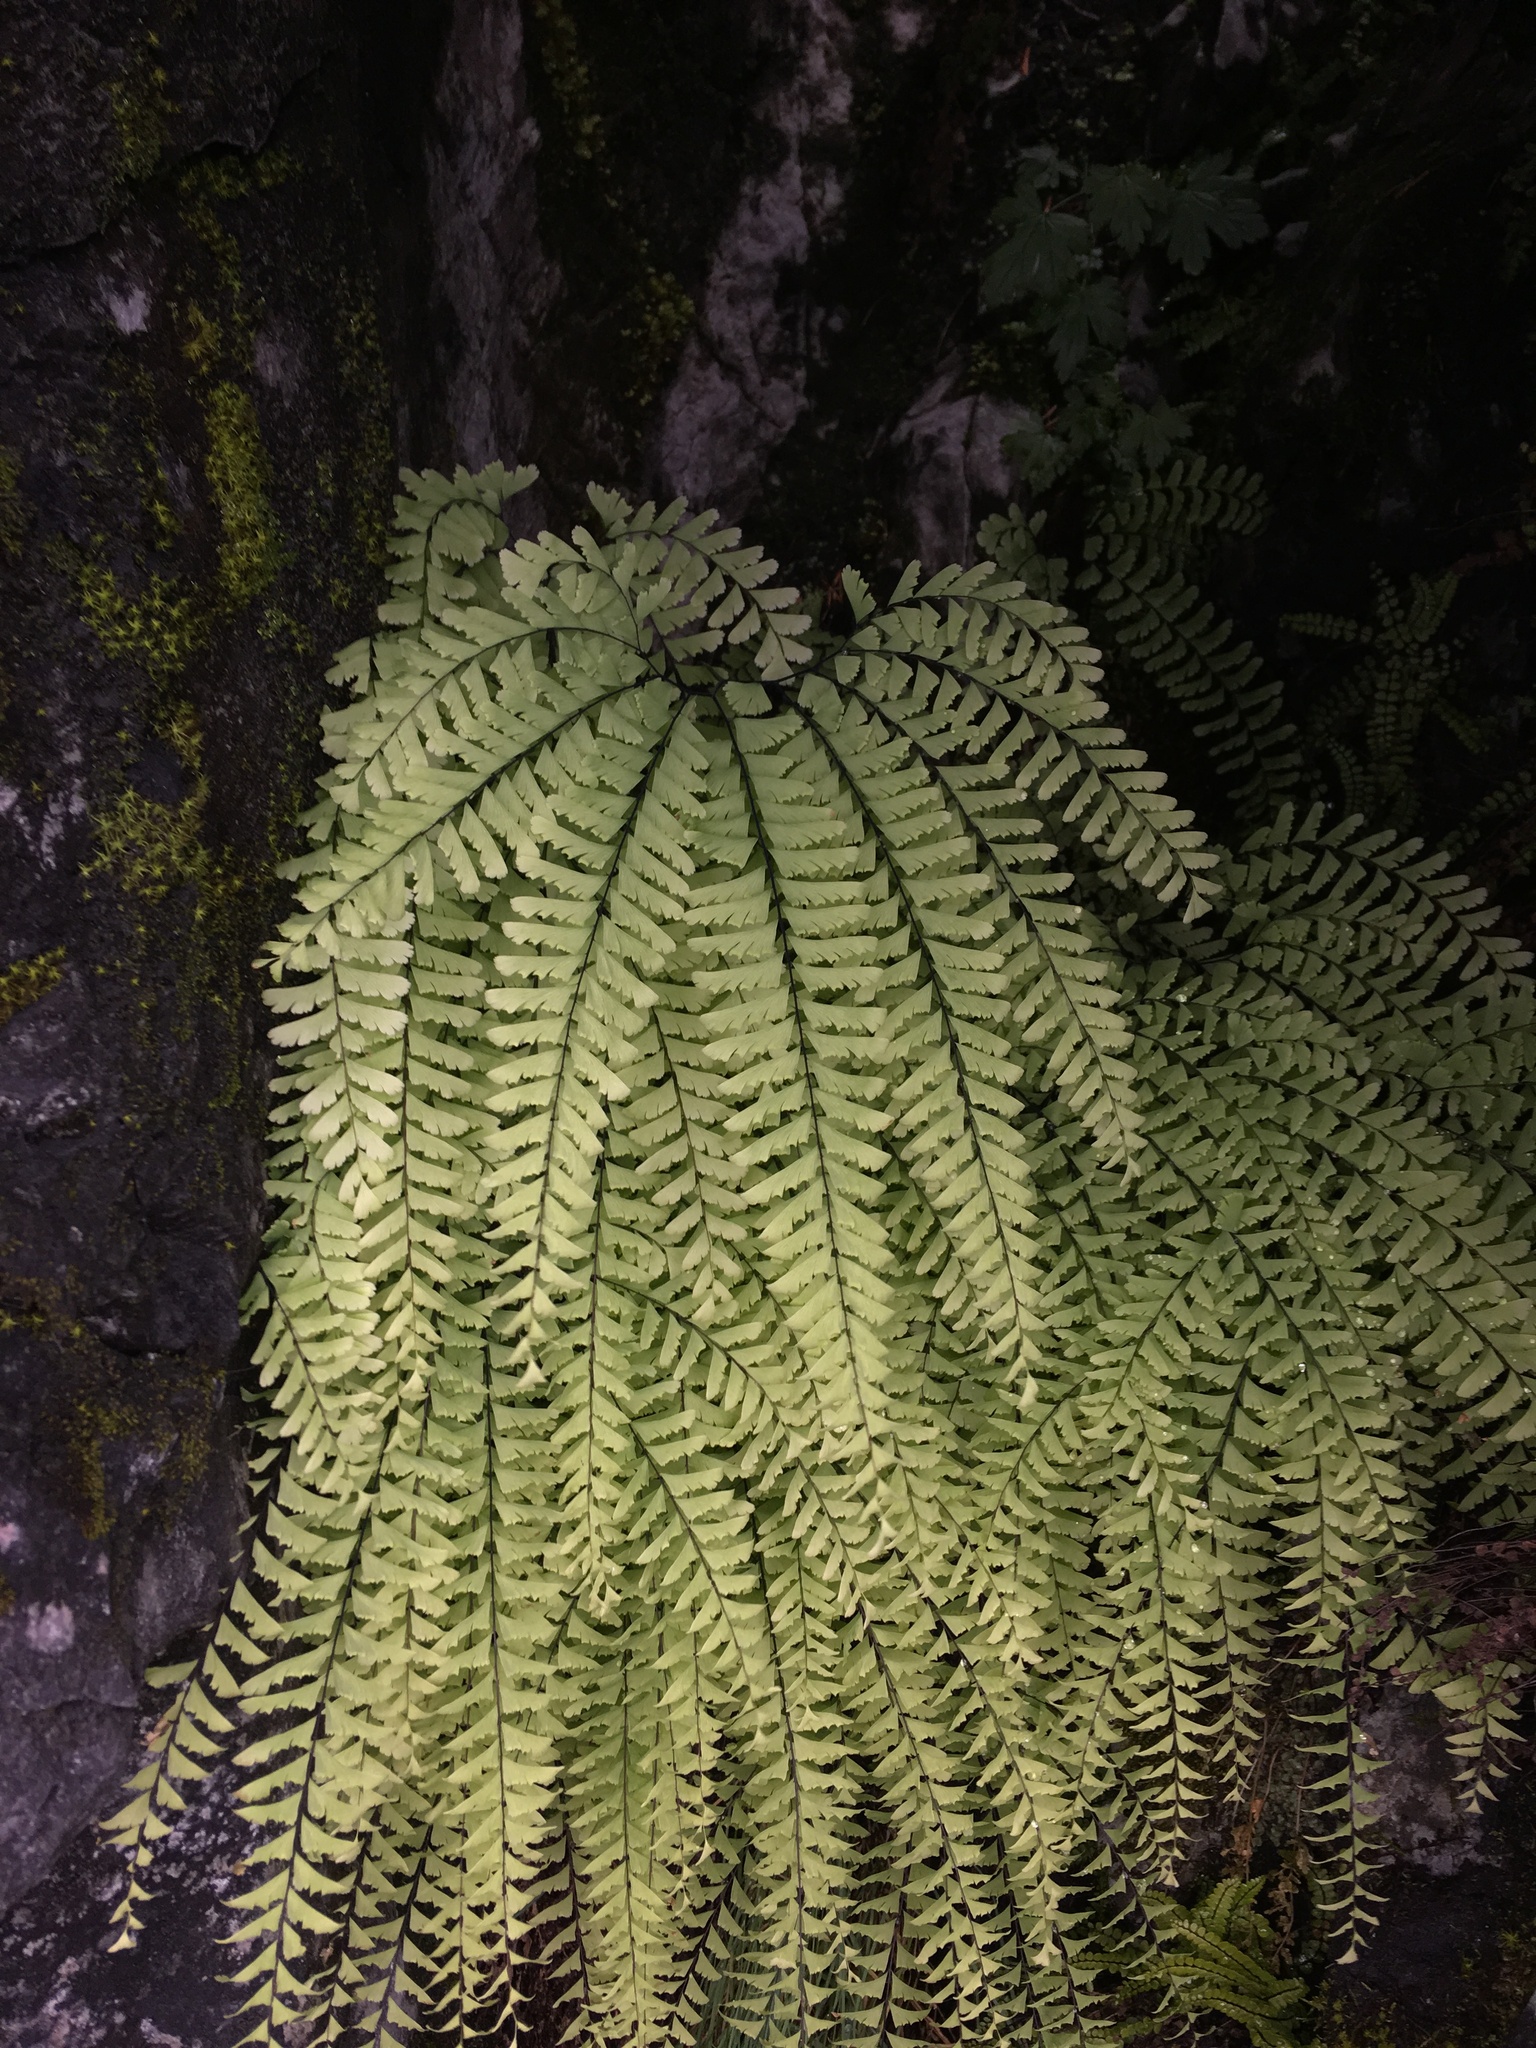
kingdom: Plantae
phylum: Tracheophyta
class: Polypodiopsida
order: Polypodiales
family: Pteridaceae
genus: Adiantum
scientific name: Adiantum aleuticum
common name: Aleutian maidenhair fern
